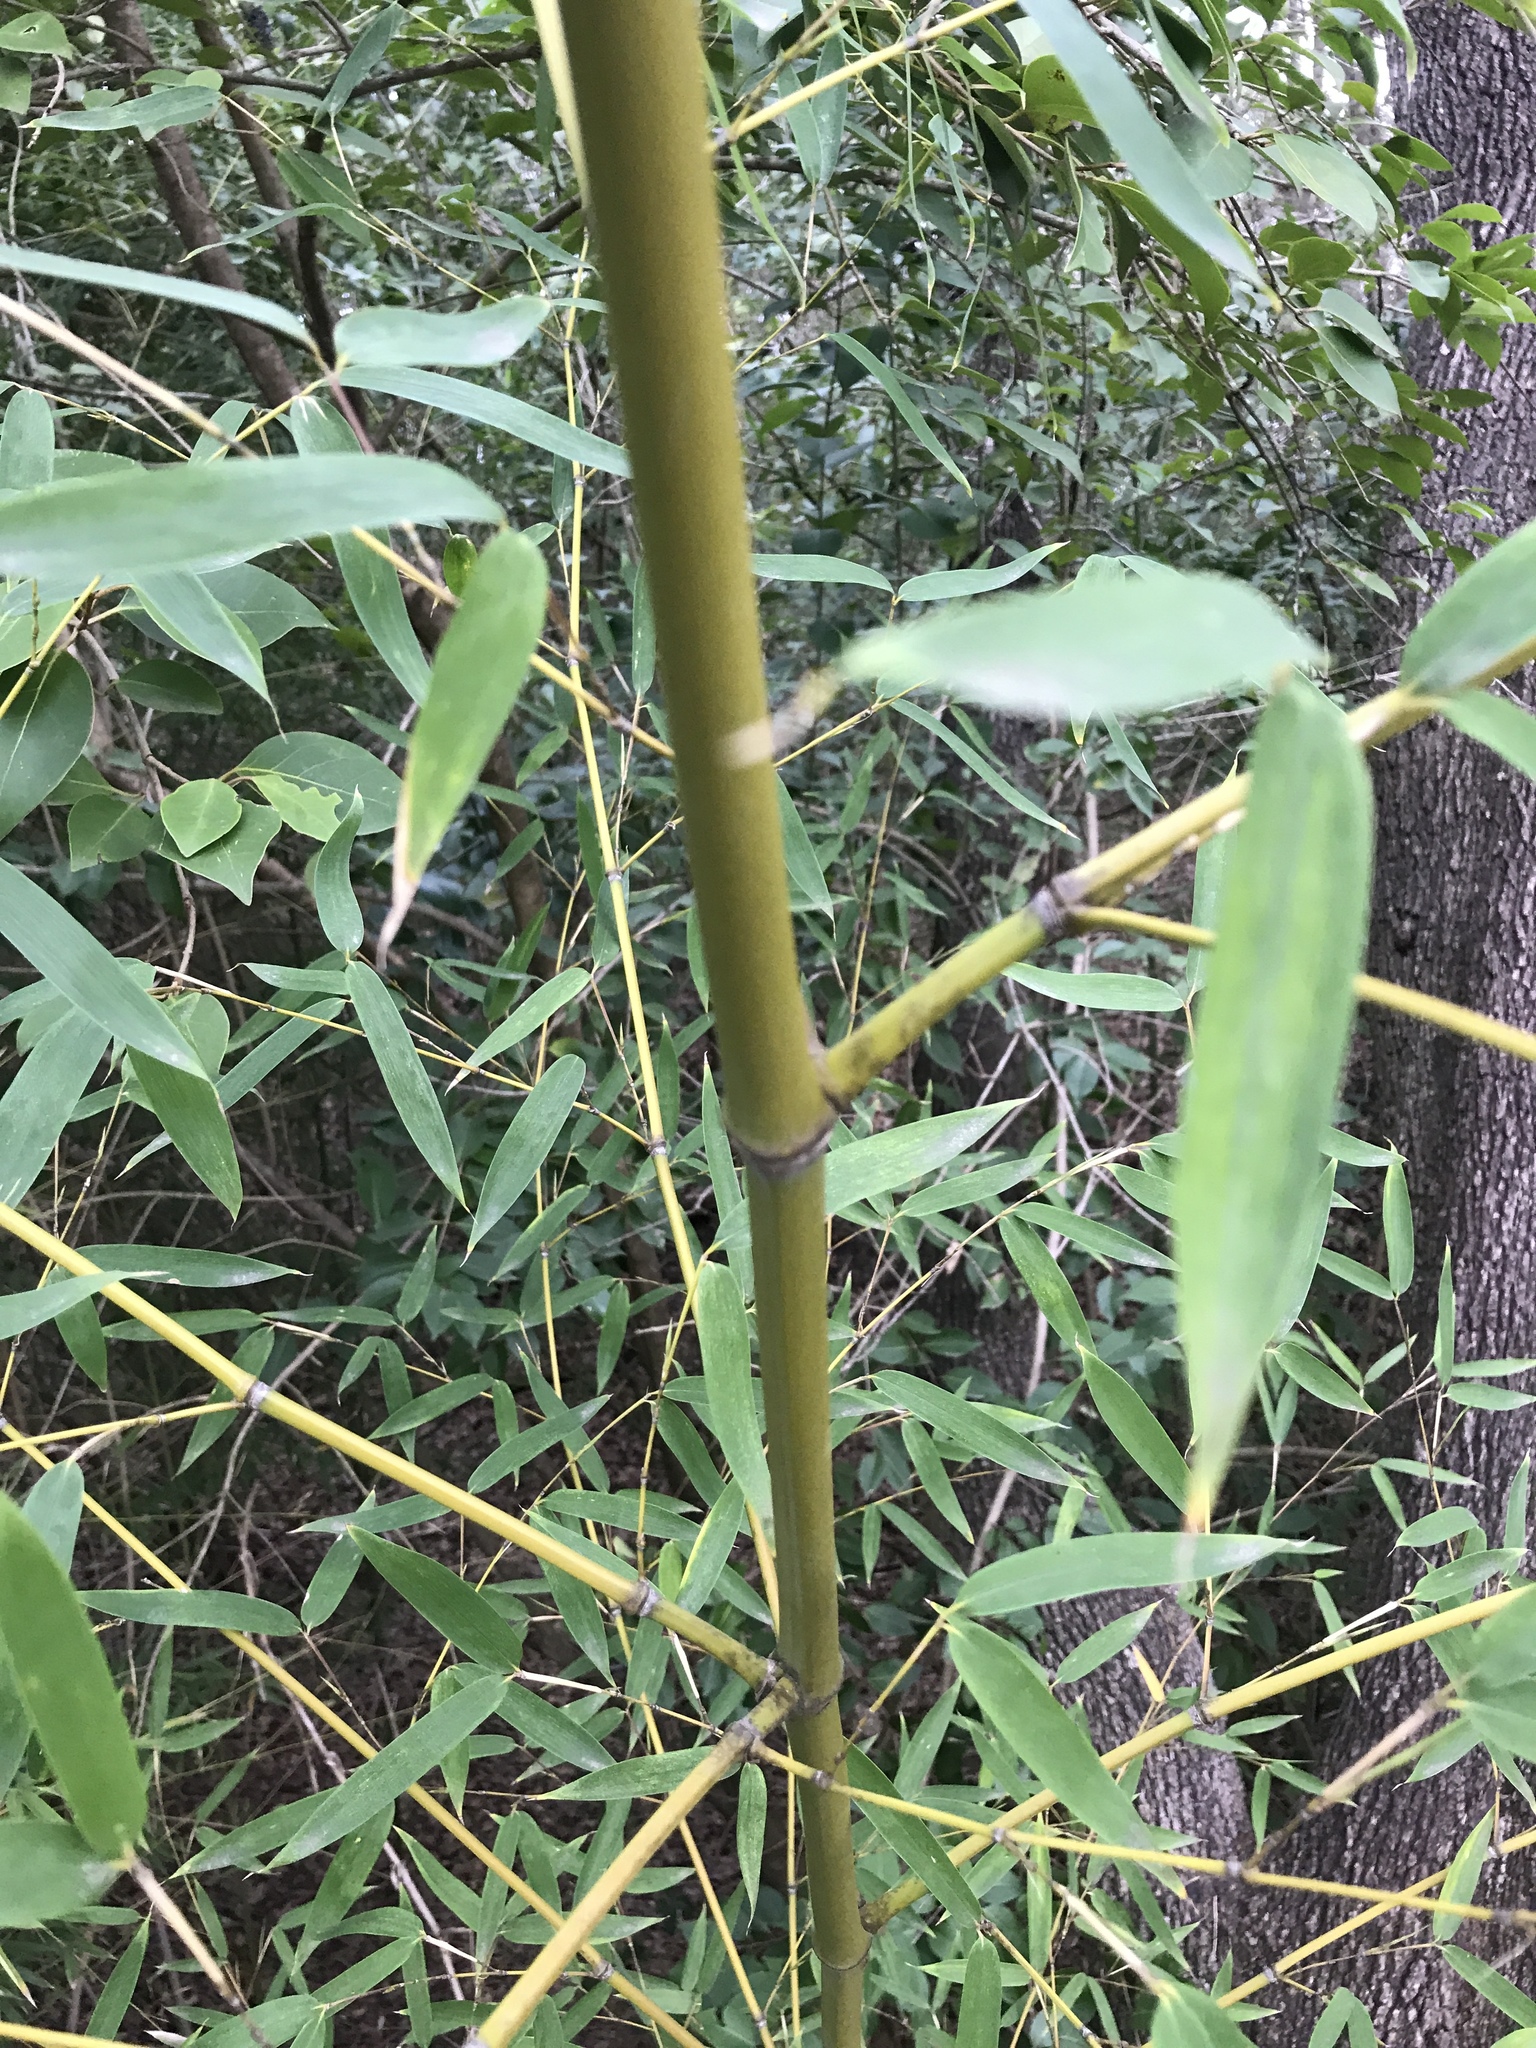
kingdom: Plantae
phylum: Tracheophyta
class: Liliopsida
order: Poales
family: Poaceae
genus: Phyllostachys
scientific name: Phyllostachys aurea
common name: Golden bamboo
